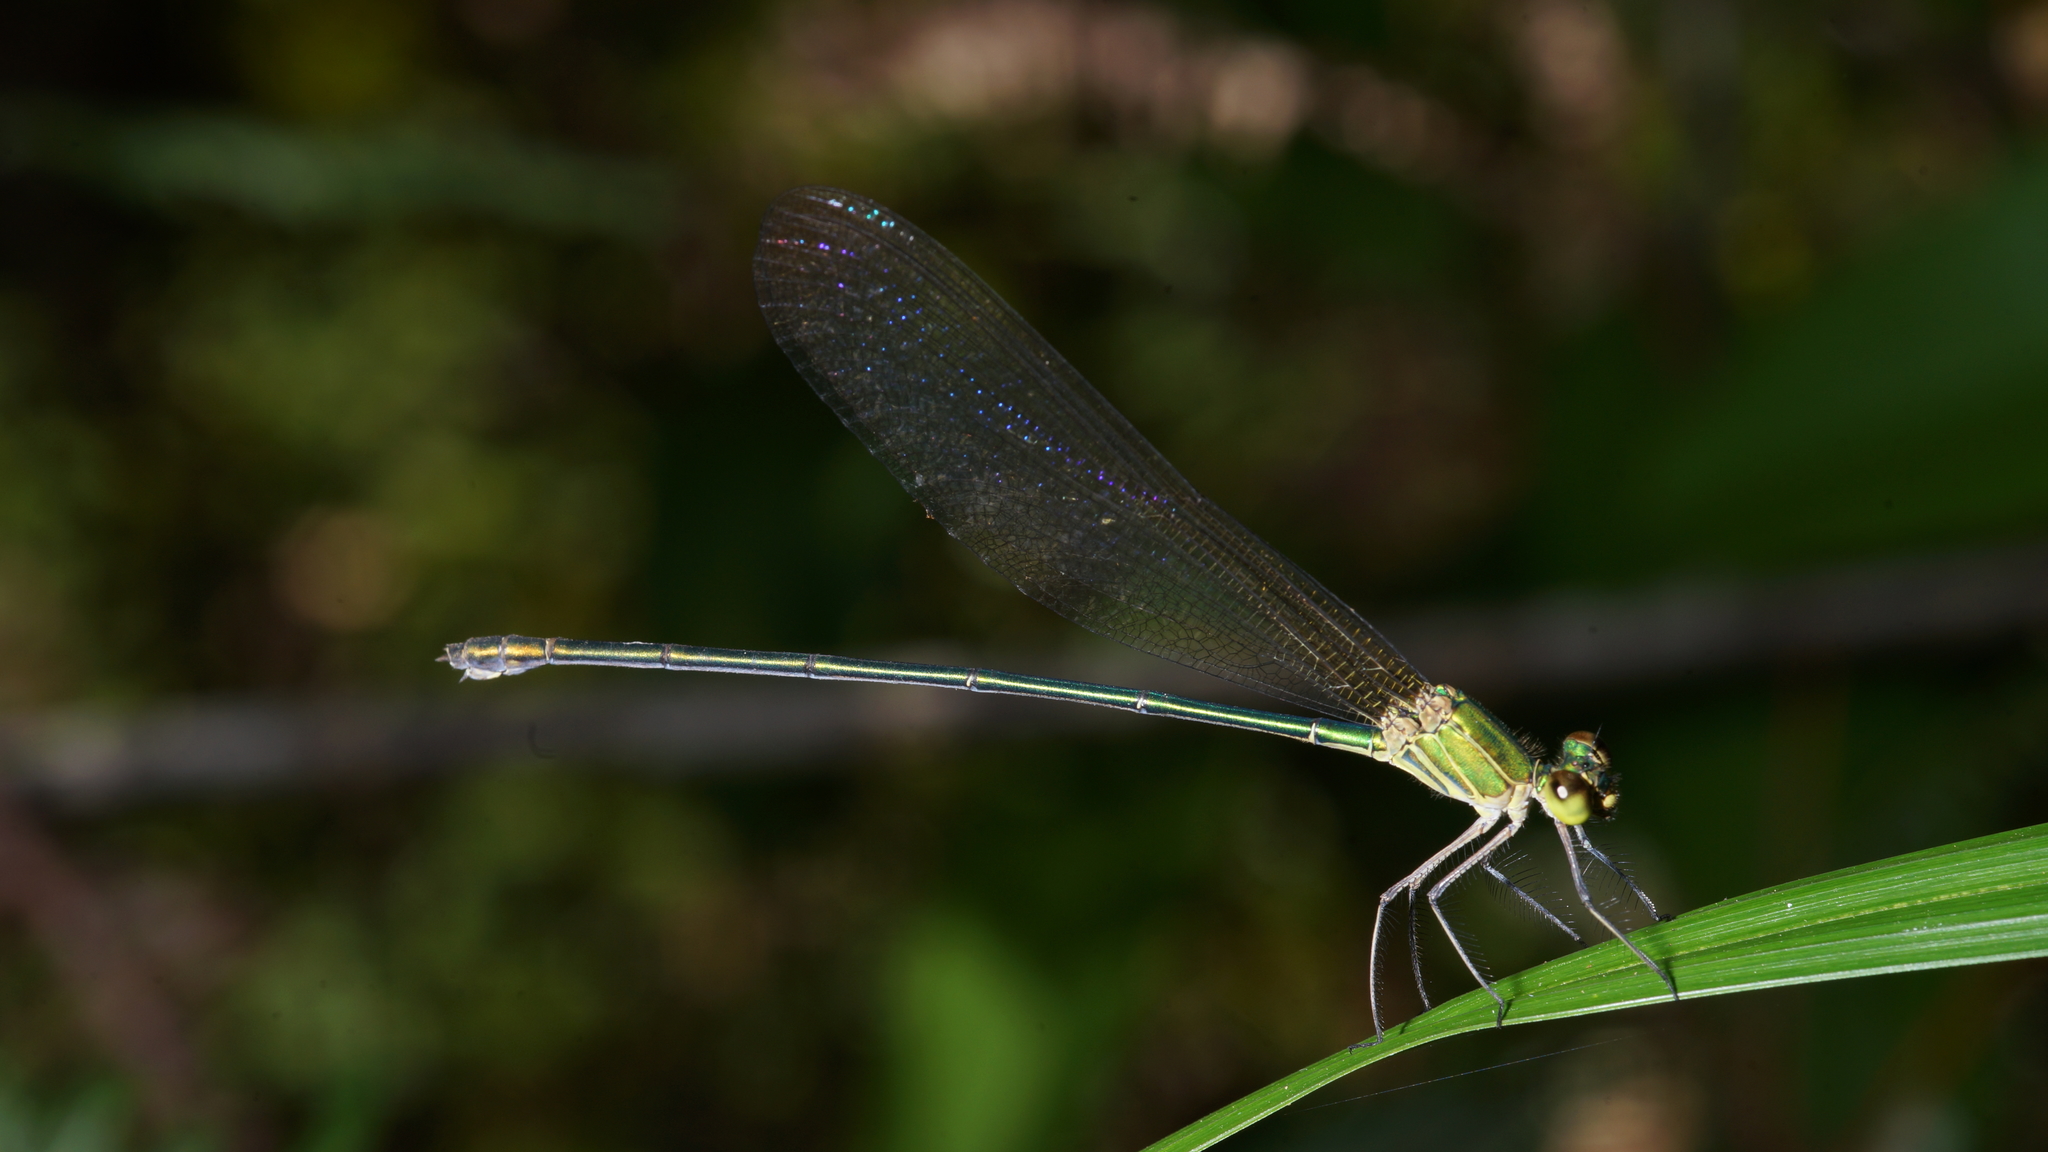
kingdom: Animalia
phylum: Arthropoda
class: Insecta
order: Odonata
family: Calopterygidae
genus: Vestalis
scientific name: Vestalis gracilis
